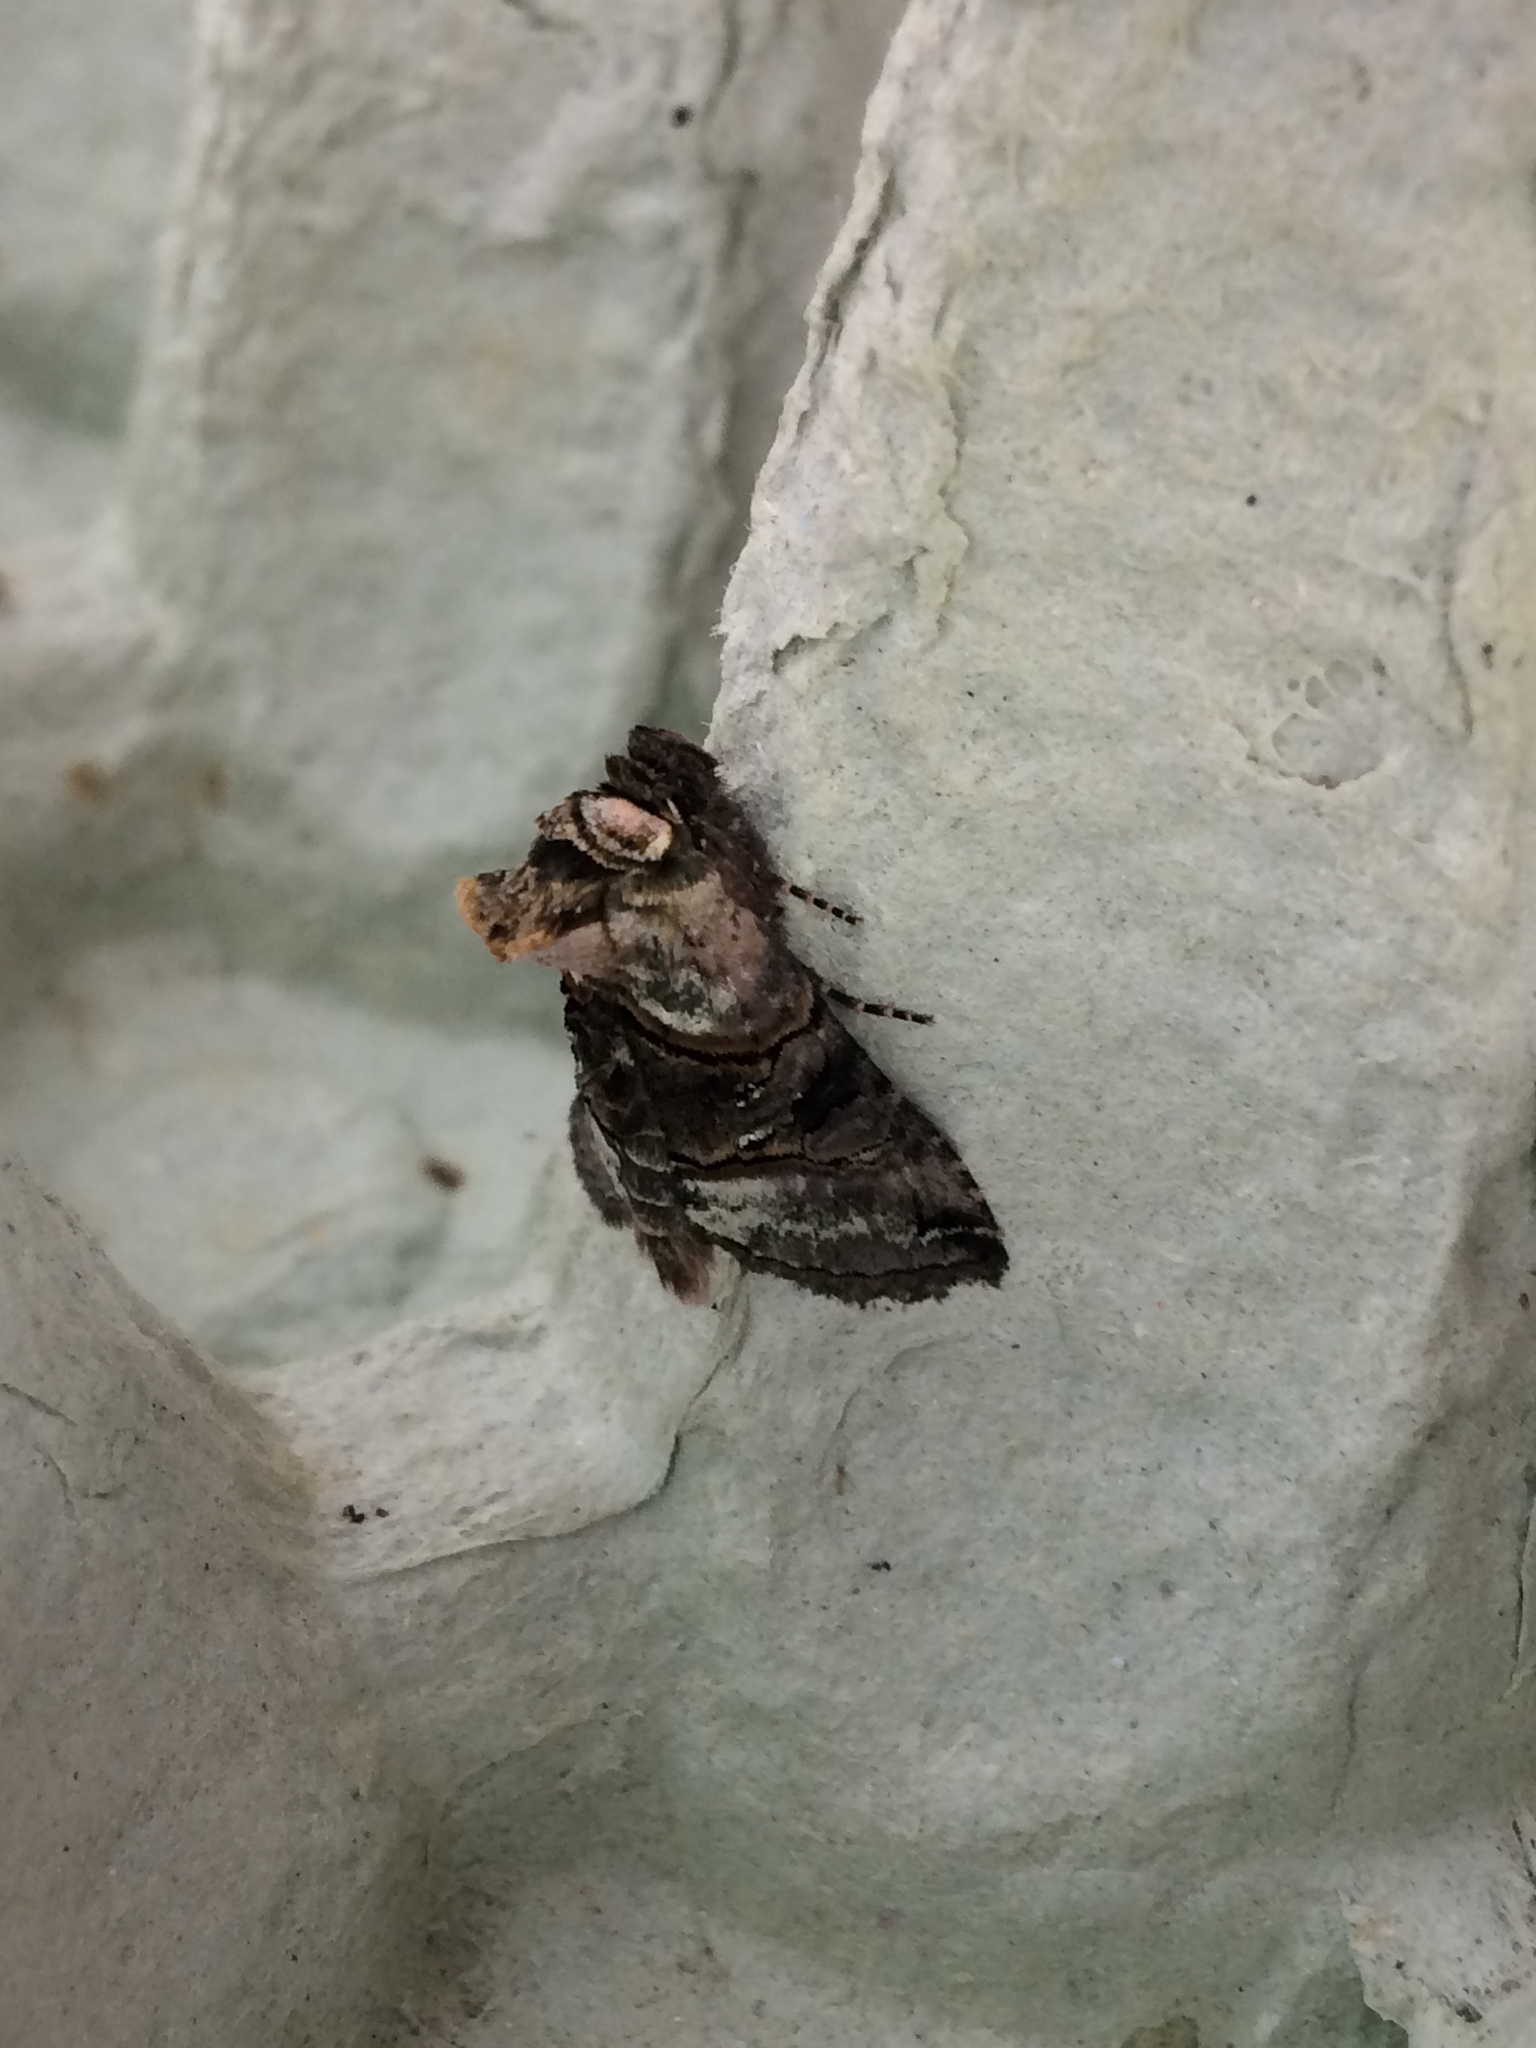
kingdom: Animalia
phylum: Arthropoda
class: Insecta
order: Lepidoptera
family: Noctuidae
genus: Abrostola
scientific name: Abrostola tripartita
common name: Spectacle
